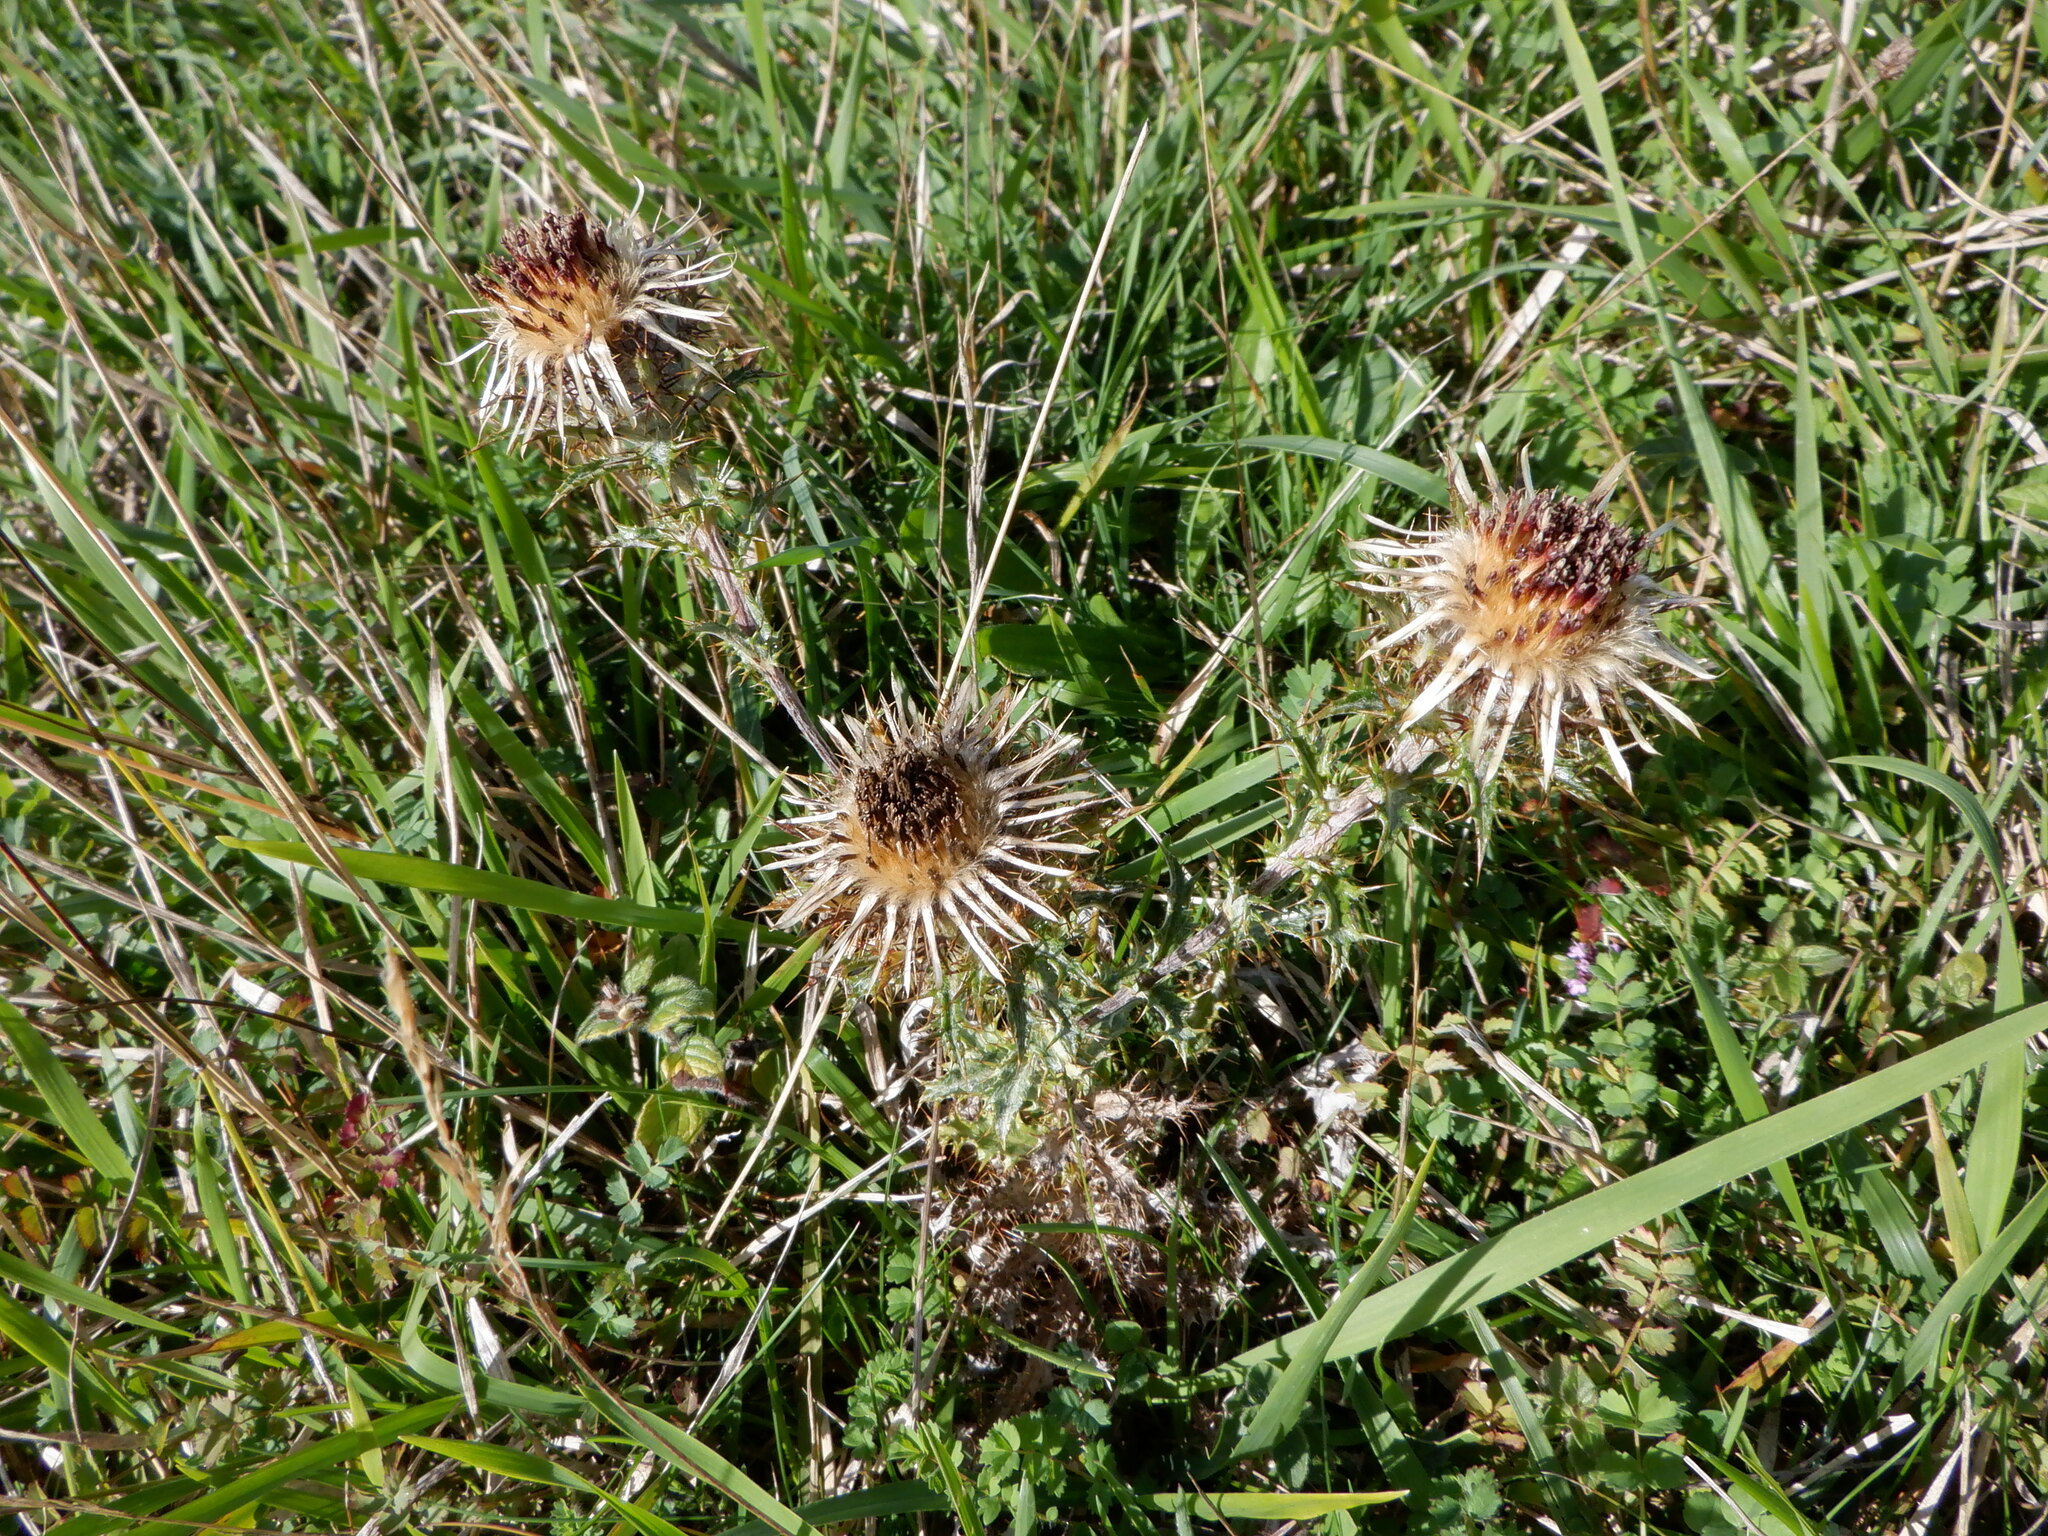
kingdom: Plantae
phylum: Tracheophyta
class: Magnoliopsida
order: Asterales
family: Asteraceae
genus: Carlina
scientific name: Carlina vulgaris
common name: Carline thistle
